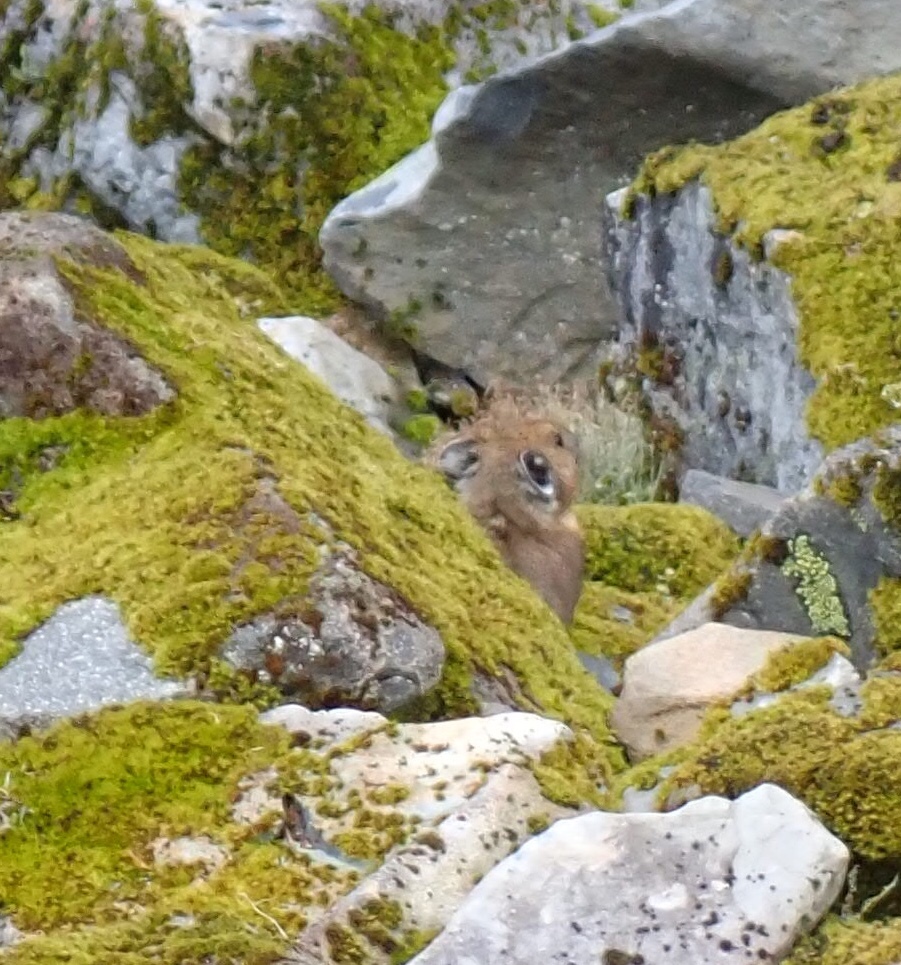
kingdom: Animalia
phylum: Chordata
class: Mammalia
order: Lagomorpha
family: Ochotonidae
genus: Ochotona
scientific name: Ochotona princeps
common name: American pika
